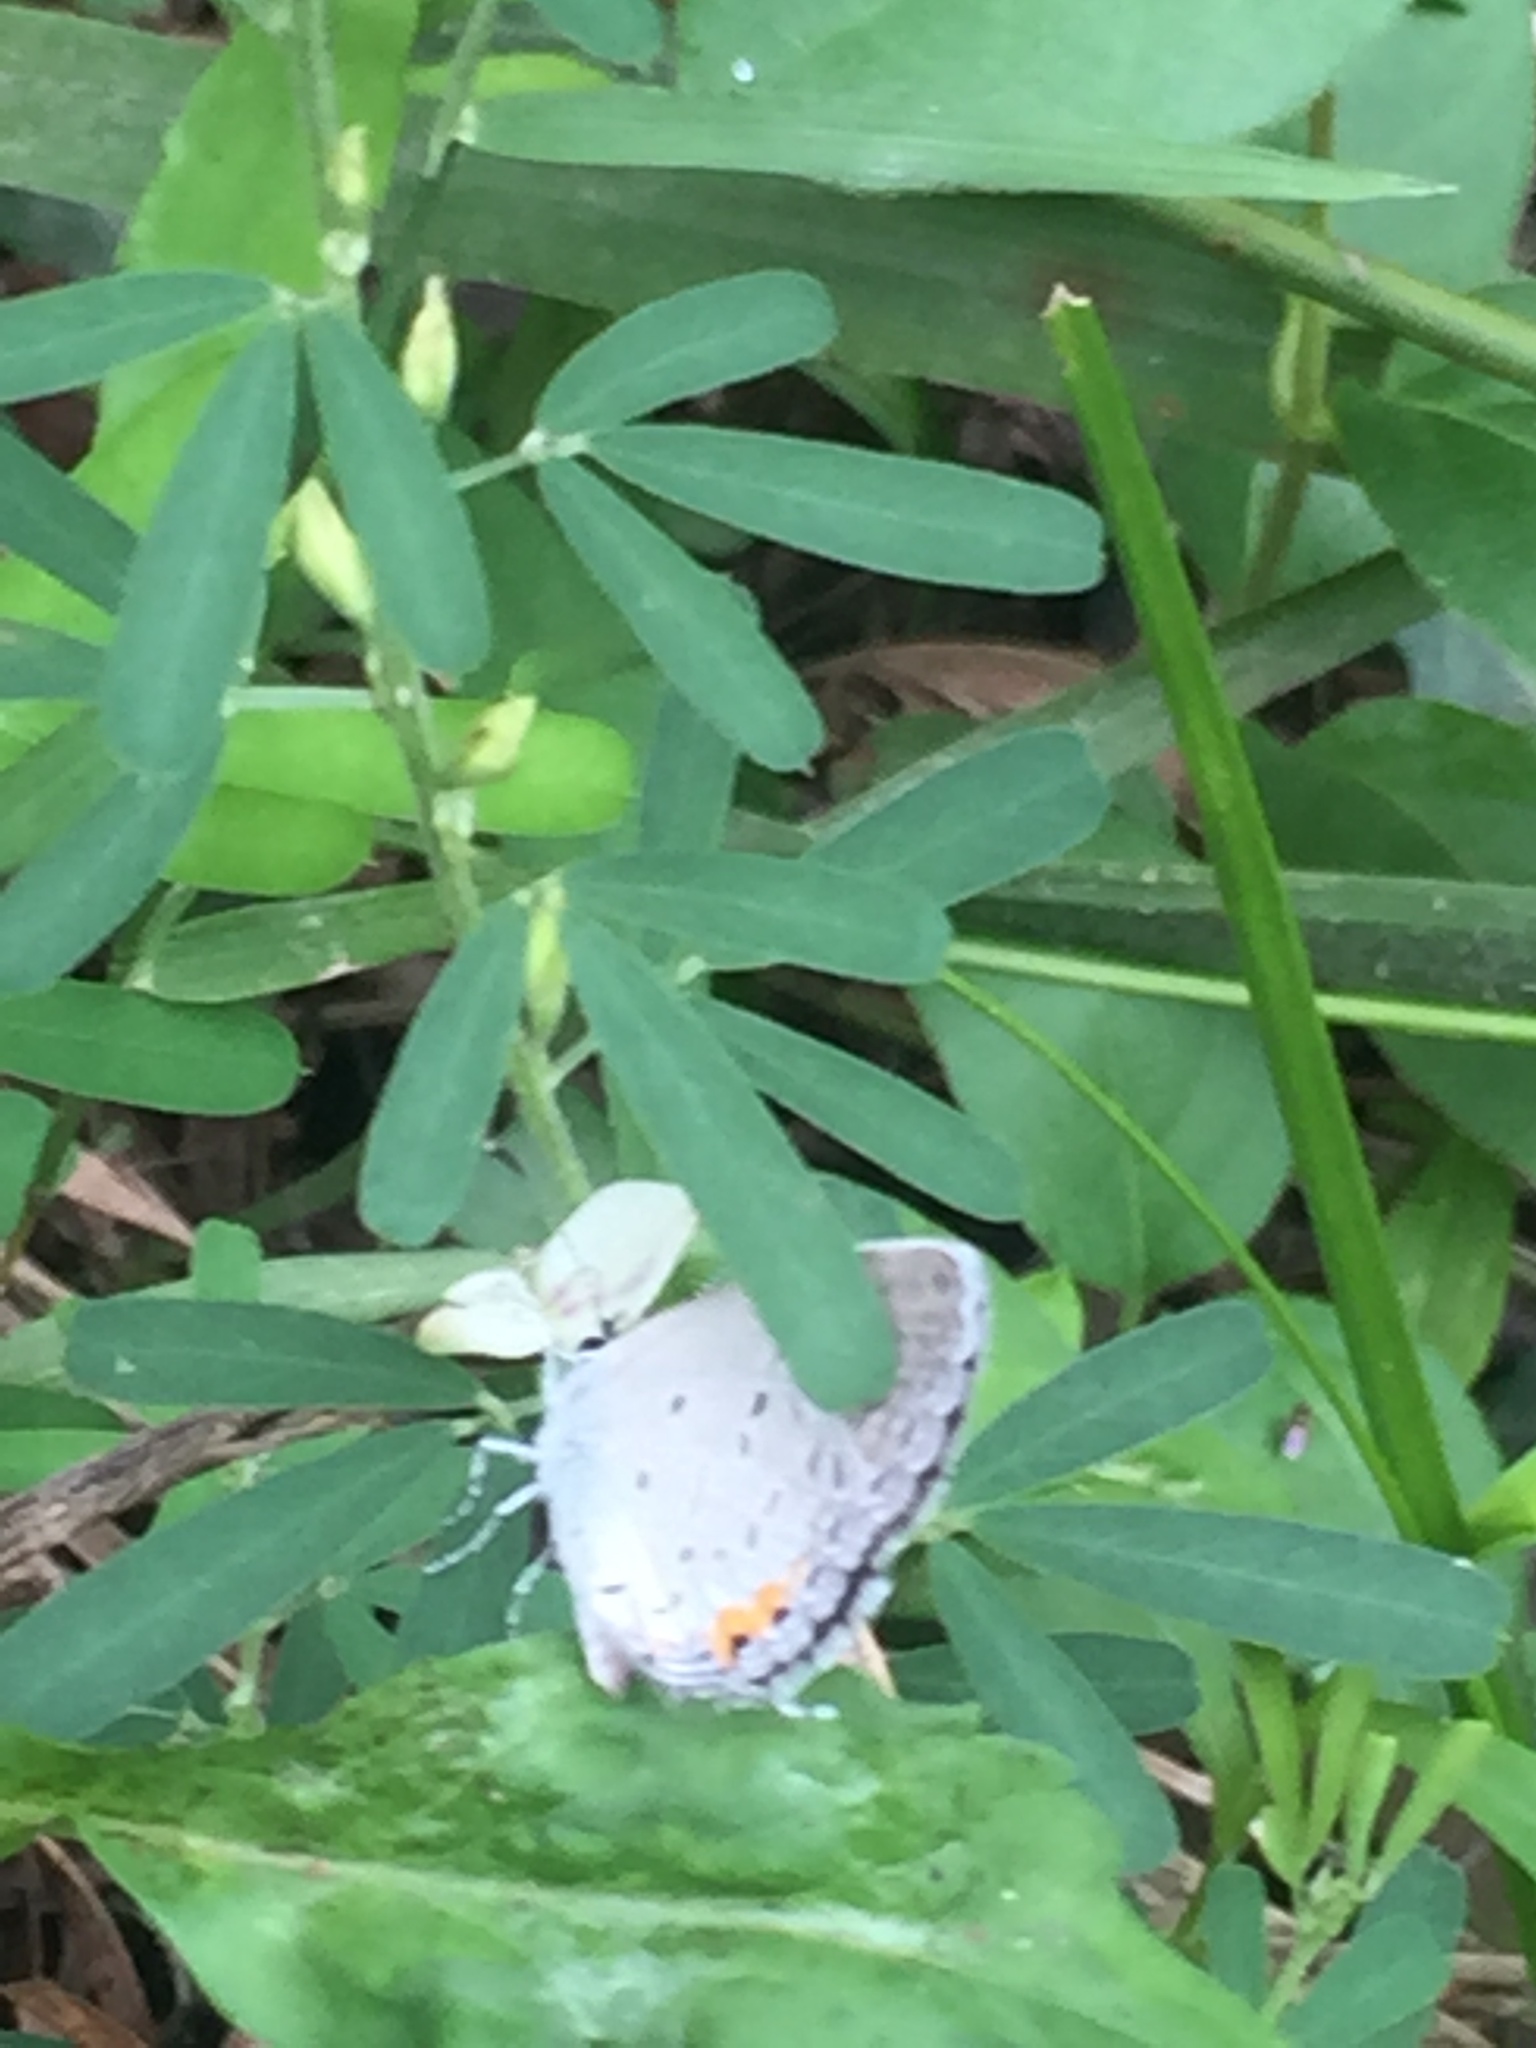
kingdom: Animalia
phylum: Arthropoda
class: Insecta
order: Lepidoptera
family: Lycaenidae
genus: Elkalyce
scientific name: Elkalyce comyntas
